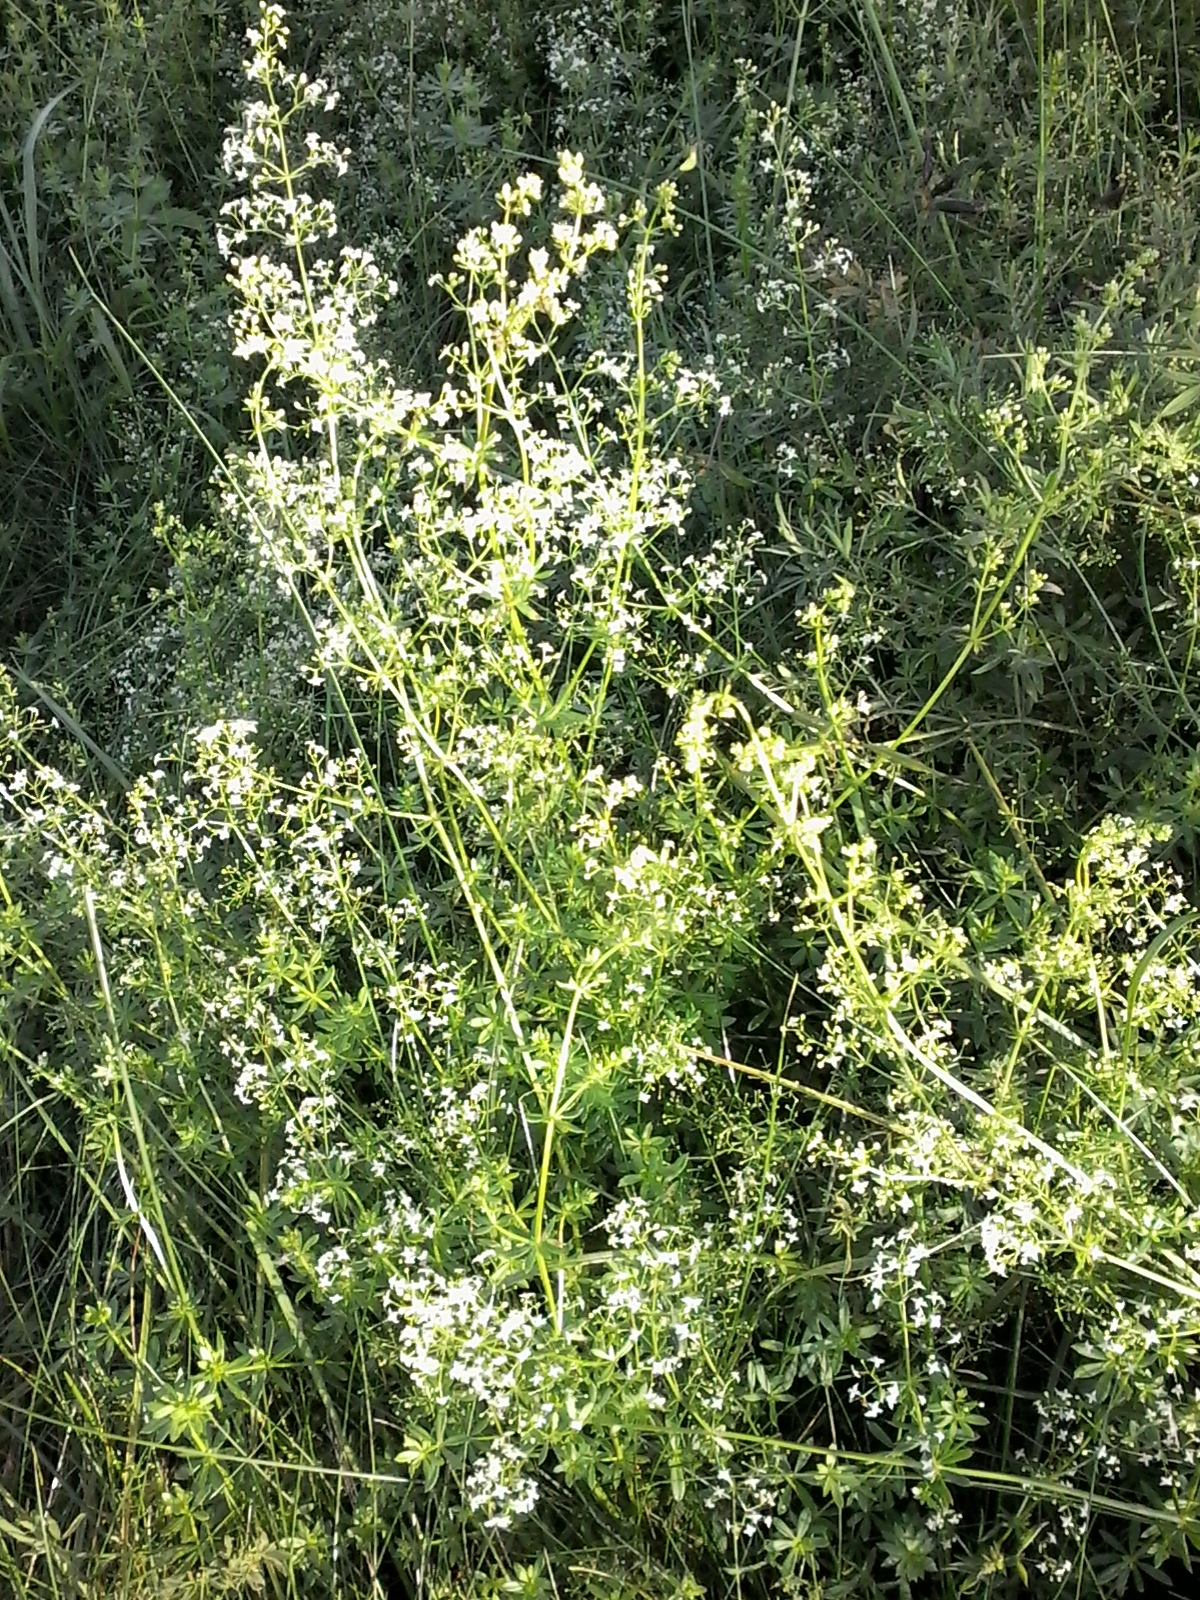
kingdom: Plantae
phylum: Tracheophyta
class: Magnoliopsida
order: Gentianales
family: Rubiaceae
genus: Galium
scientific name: Galium mollugo
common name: Hedge bedstraw
